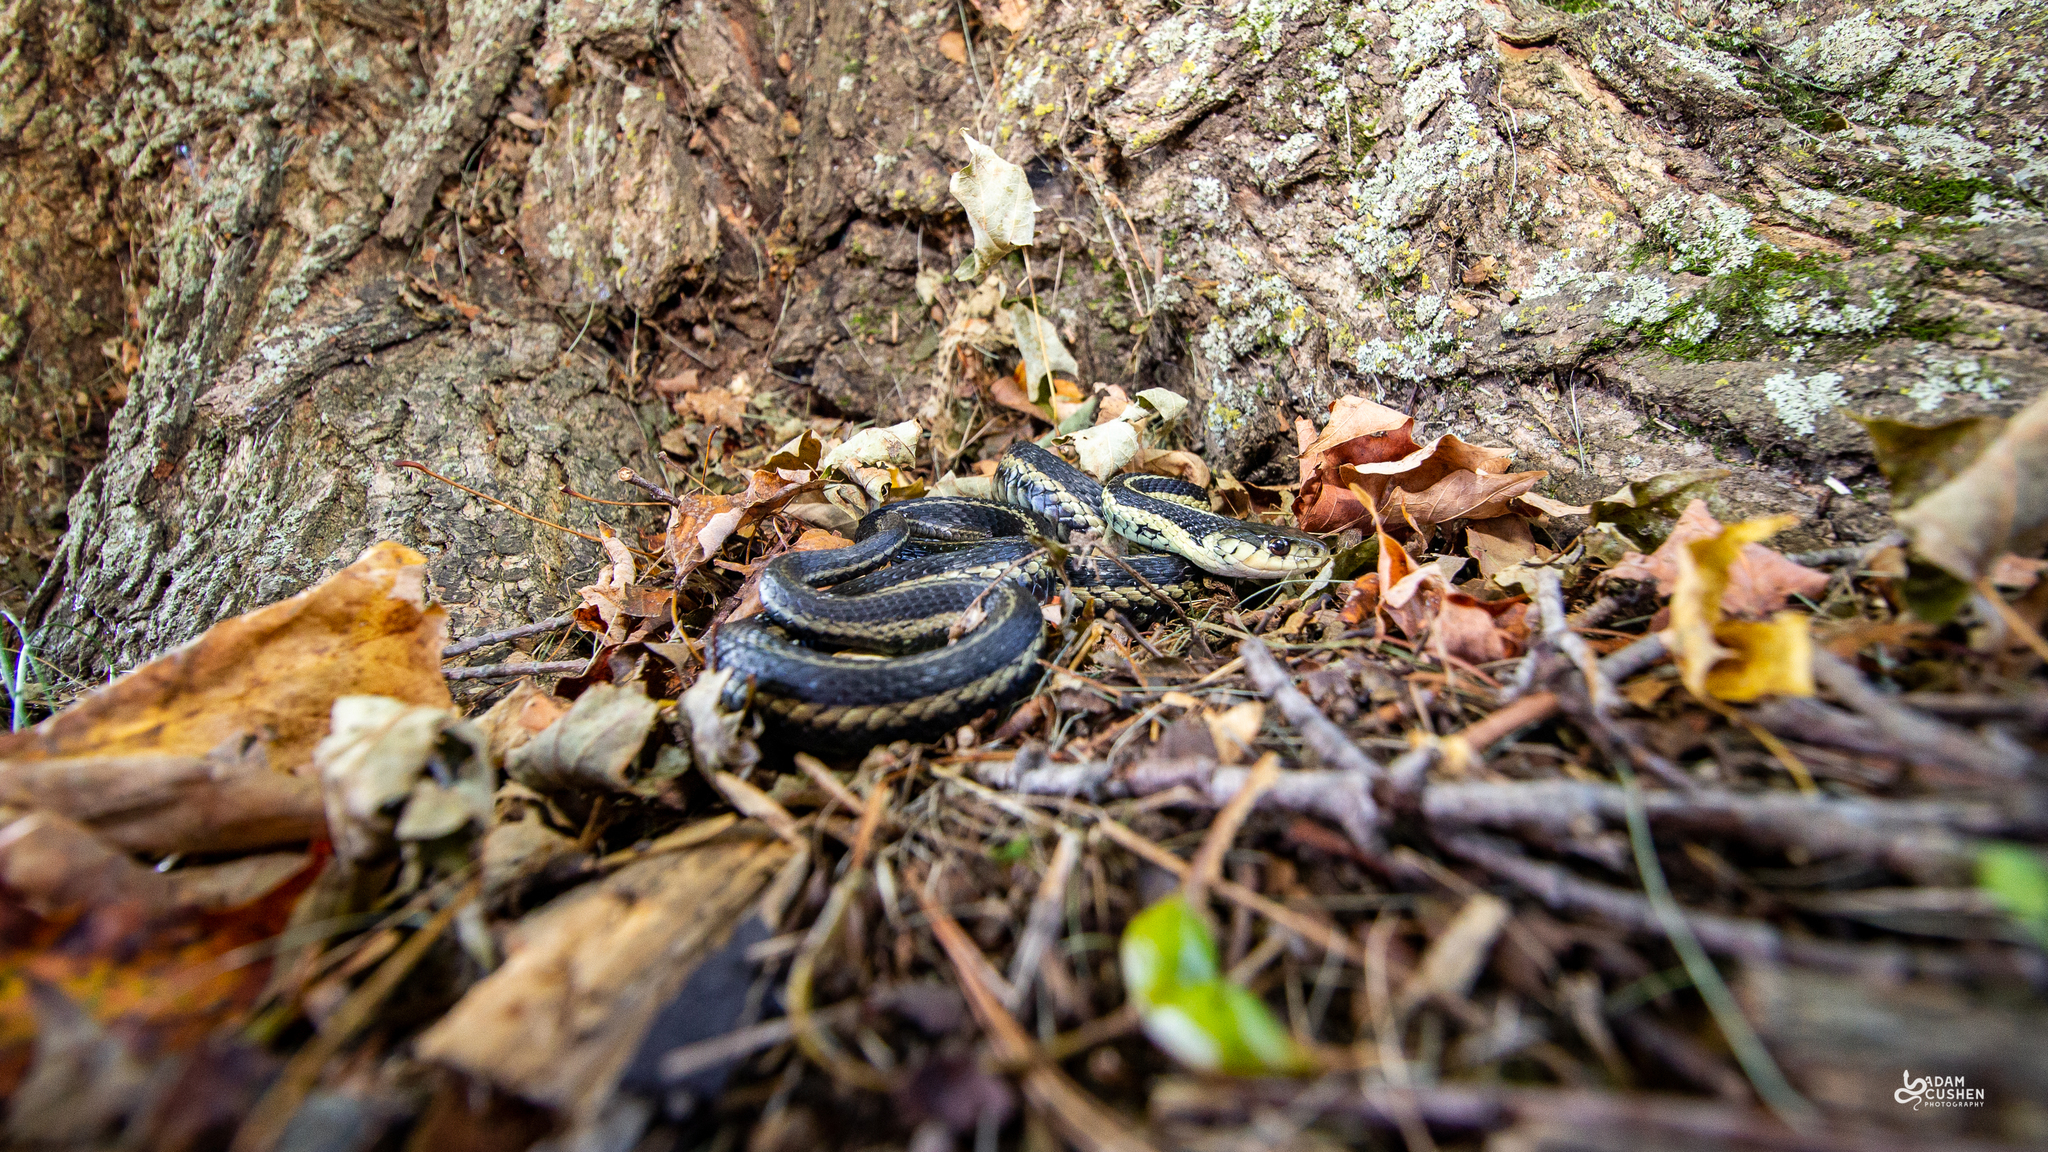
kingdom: Animalia
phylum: Chordata
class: Squamata
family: Colubridae
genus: Thamnophis
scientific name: Thamnophis sirtalis
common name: Common garter snake
